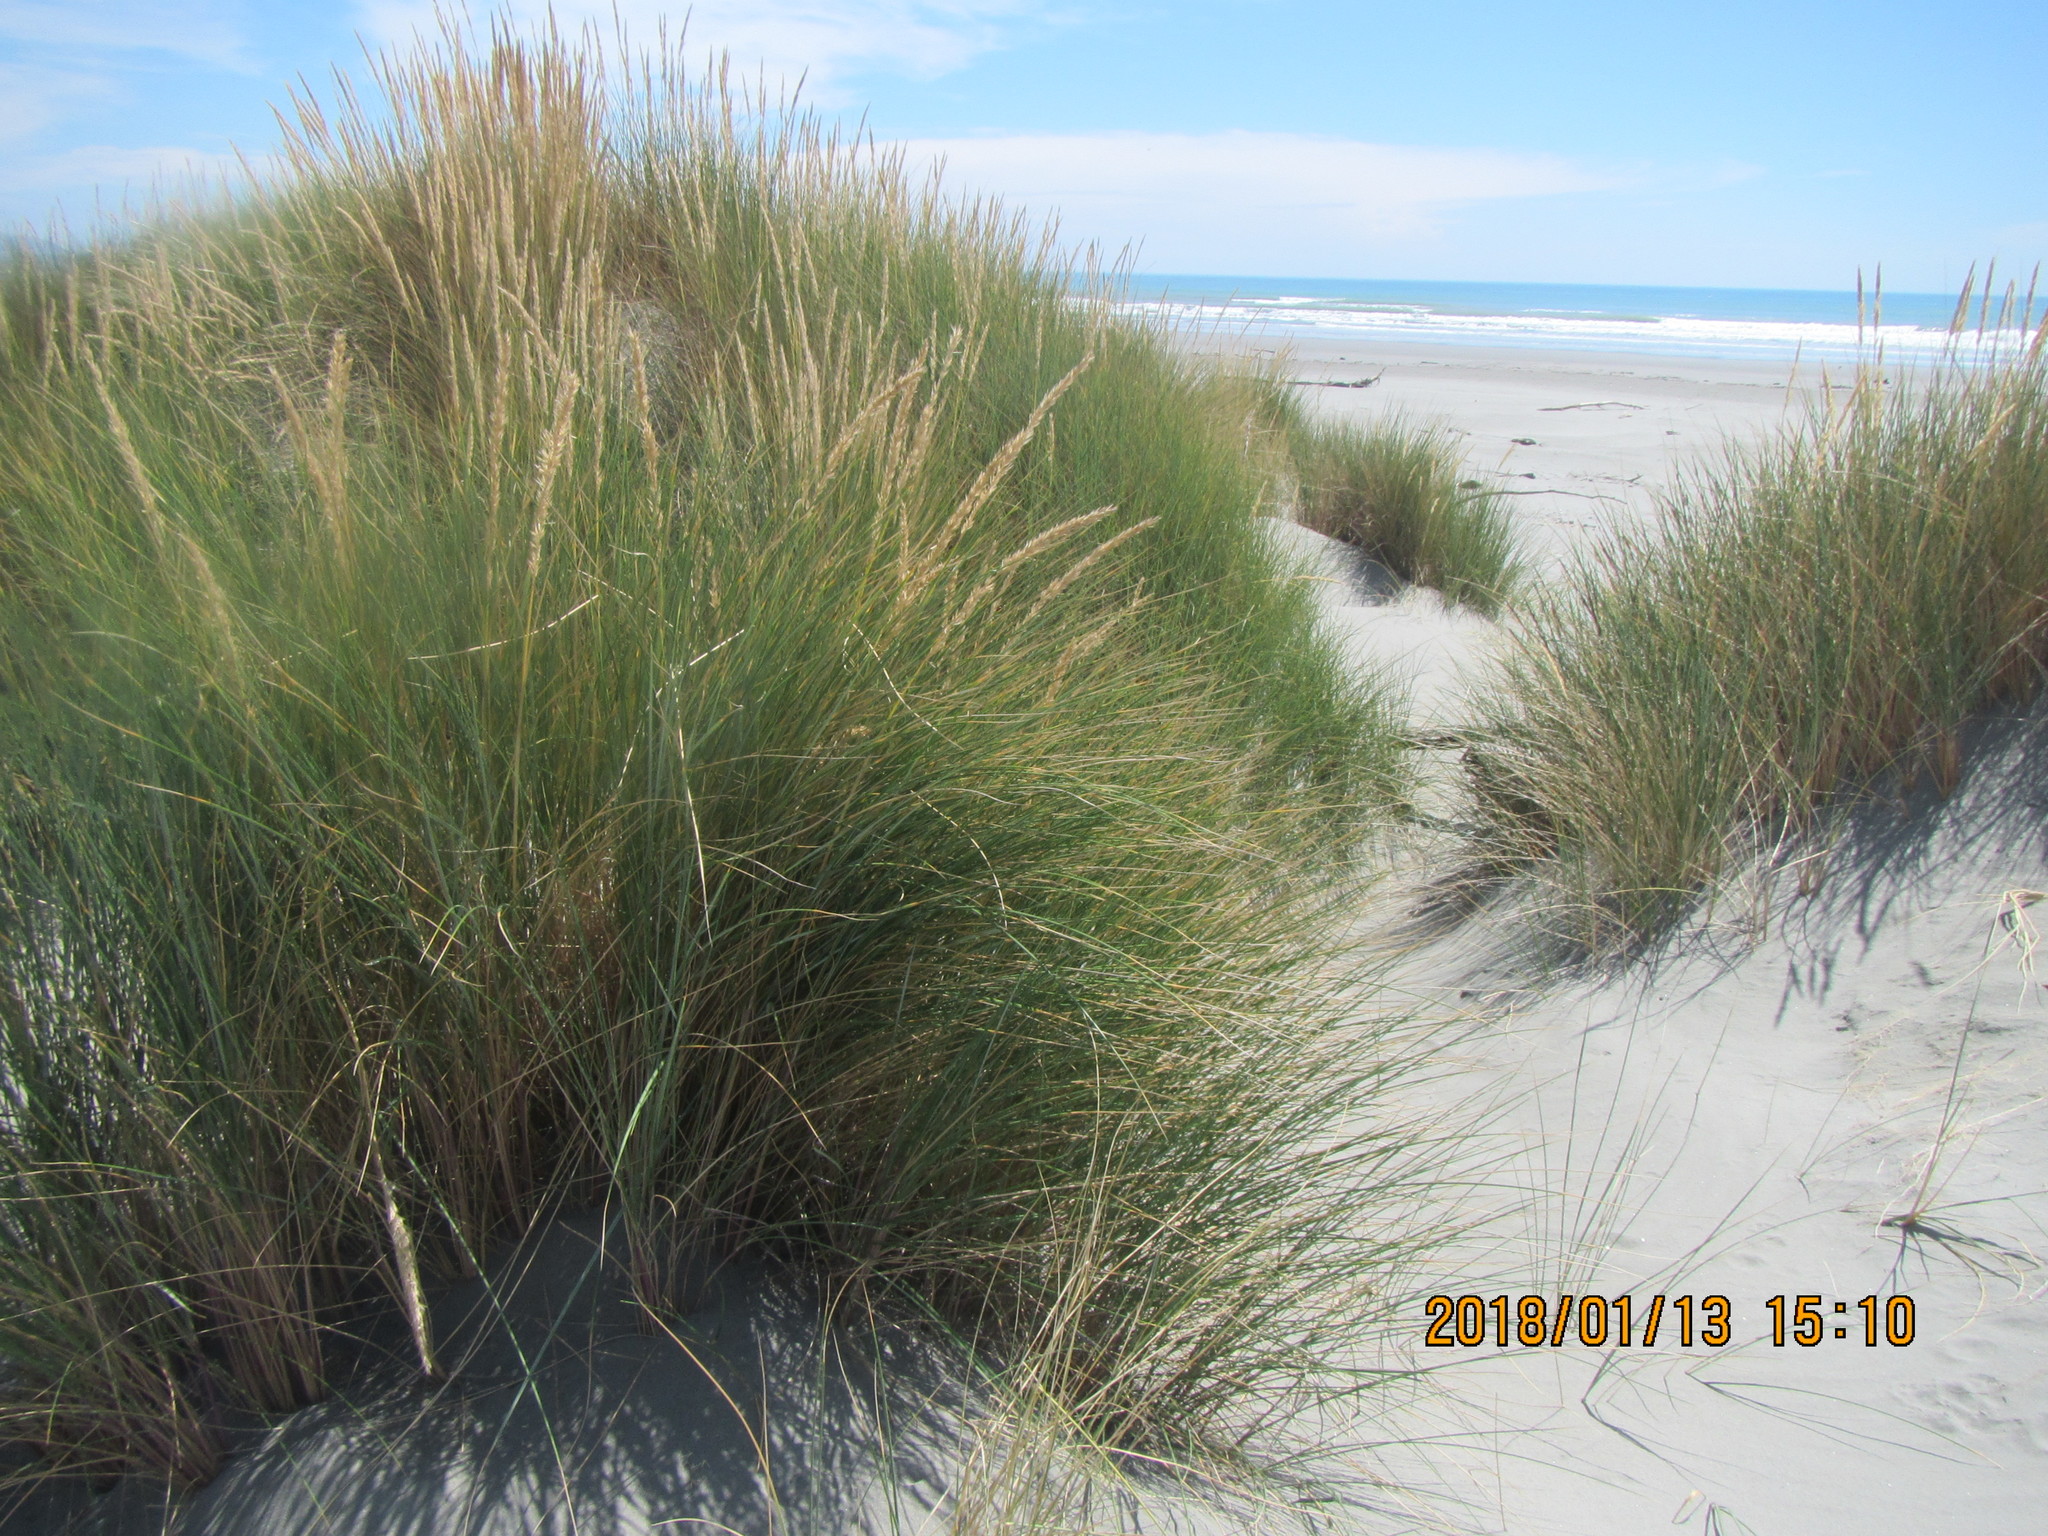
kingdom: Plantae
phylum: Tracheophyta
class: Liliopsida
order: Poales
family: Poaceae
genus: Calamagrostis
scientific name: Calamagrostis arenaria
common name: European beachgrass
